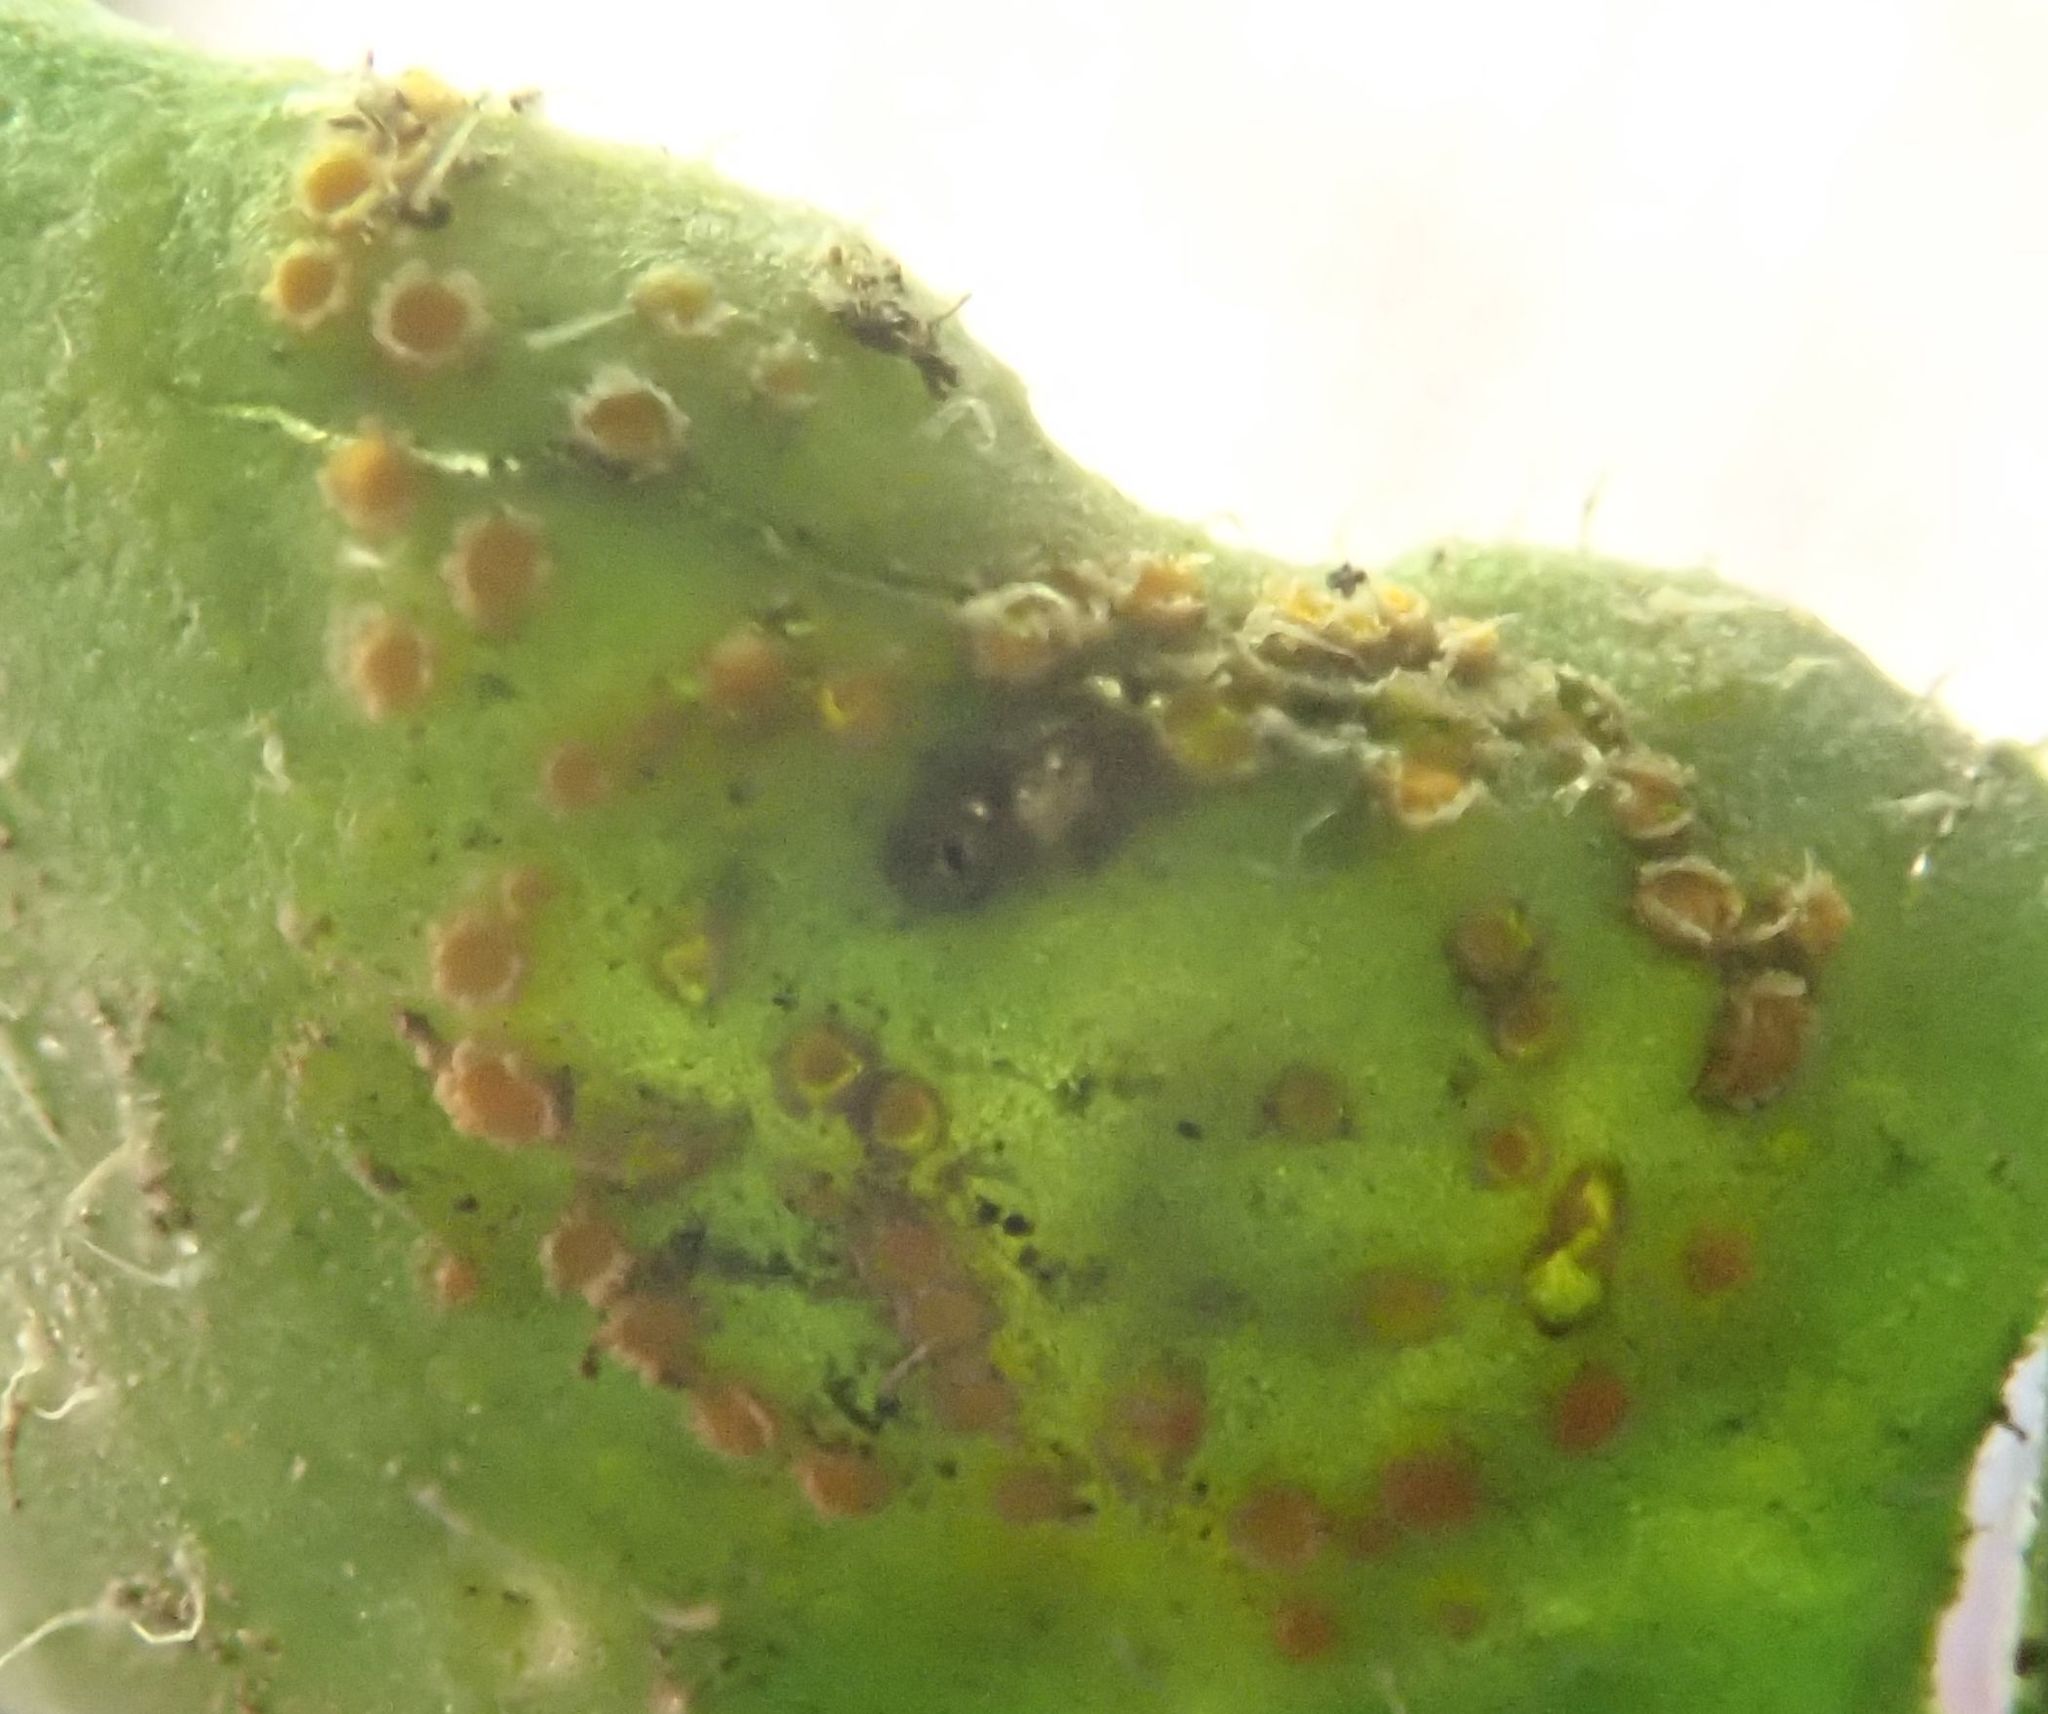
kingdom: Fungi
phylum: Basidiomycota
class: Pucciniomycetes
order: Pucciniales
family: Pucciniaceae
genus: Puccinia
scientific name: Puccinia lagenophorae
